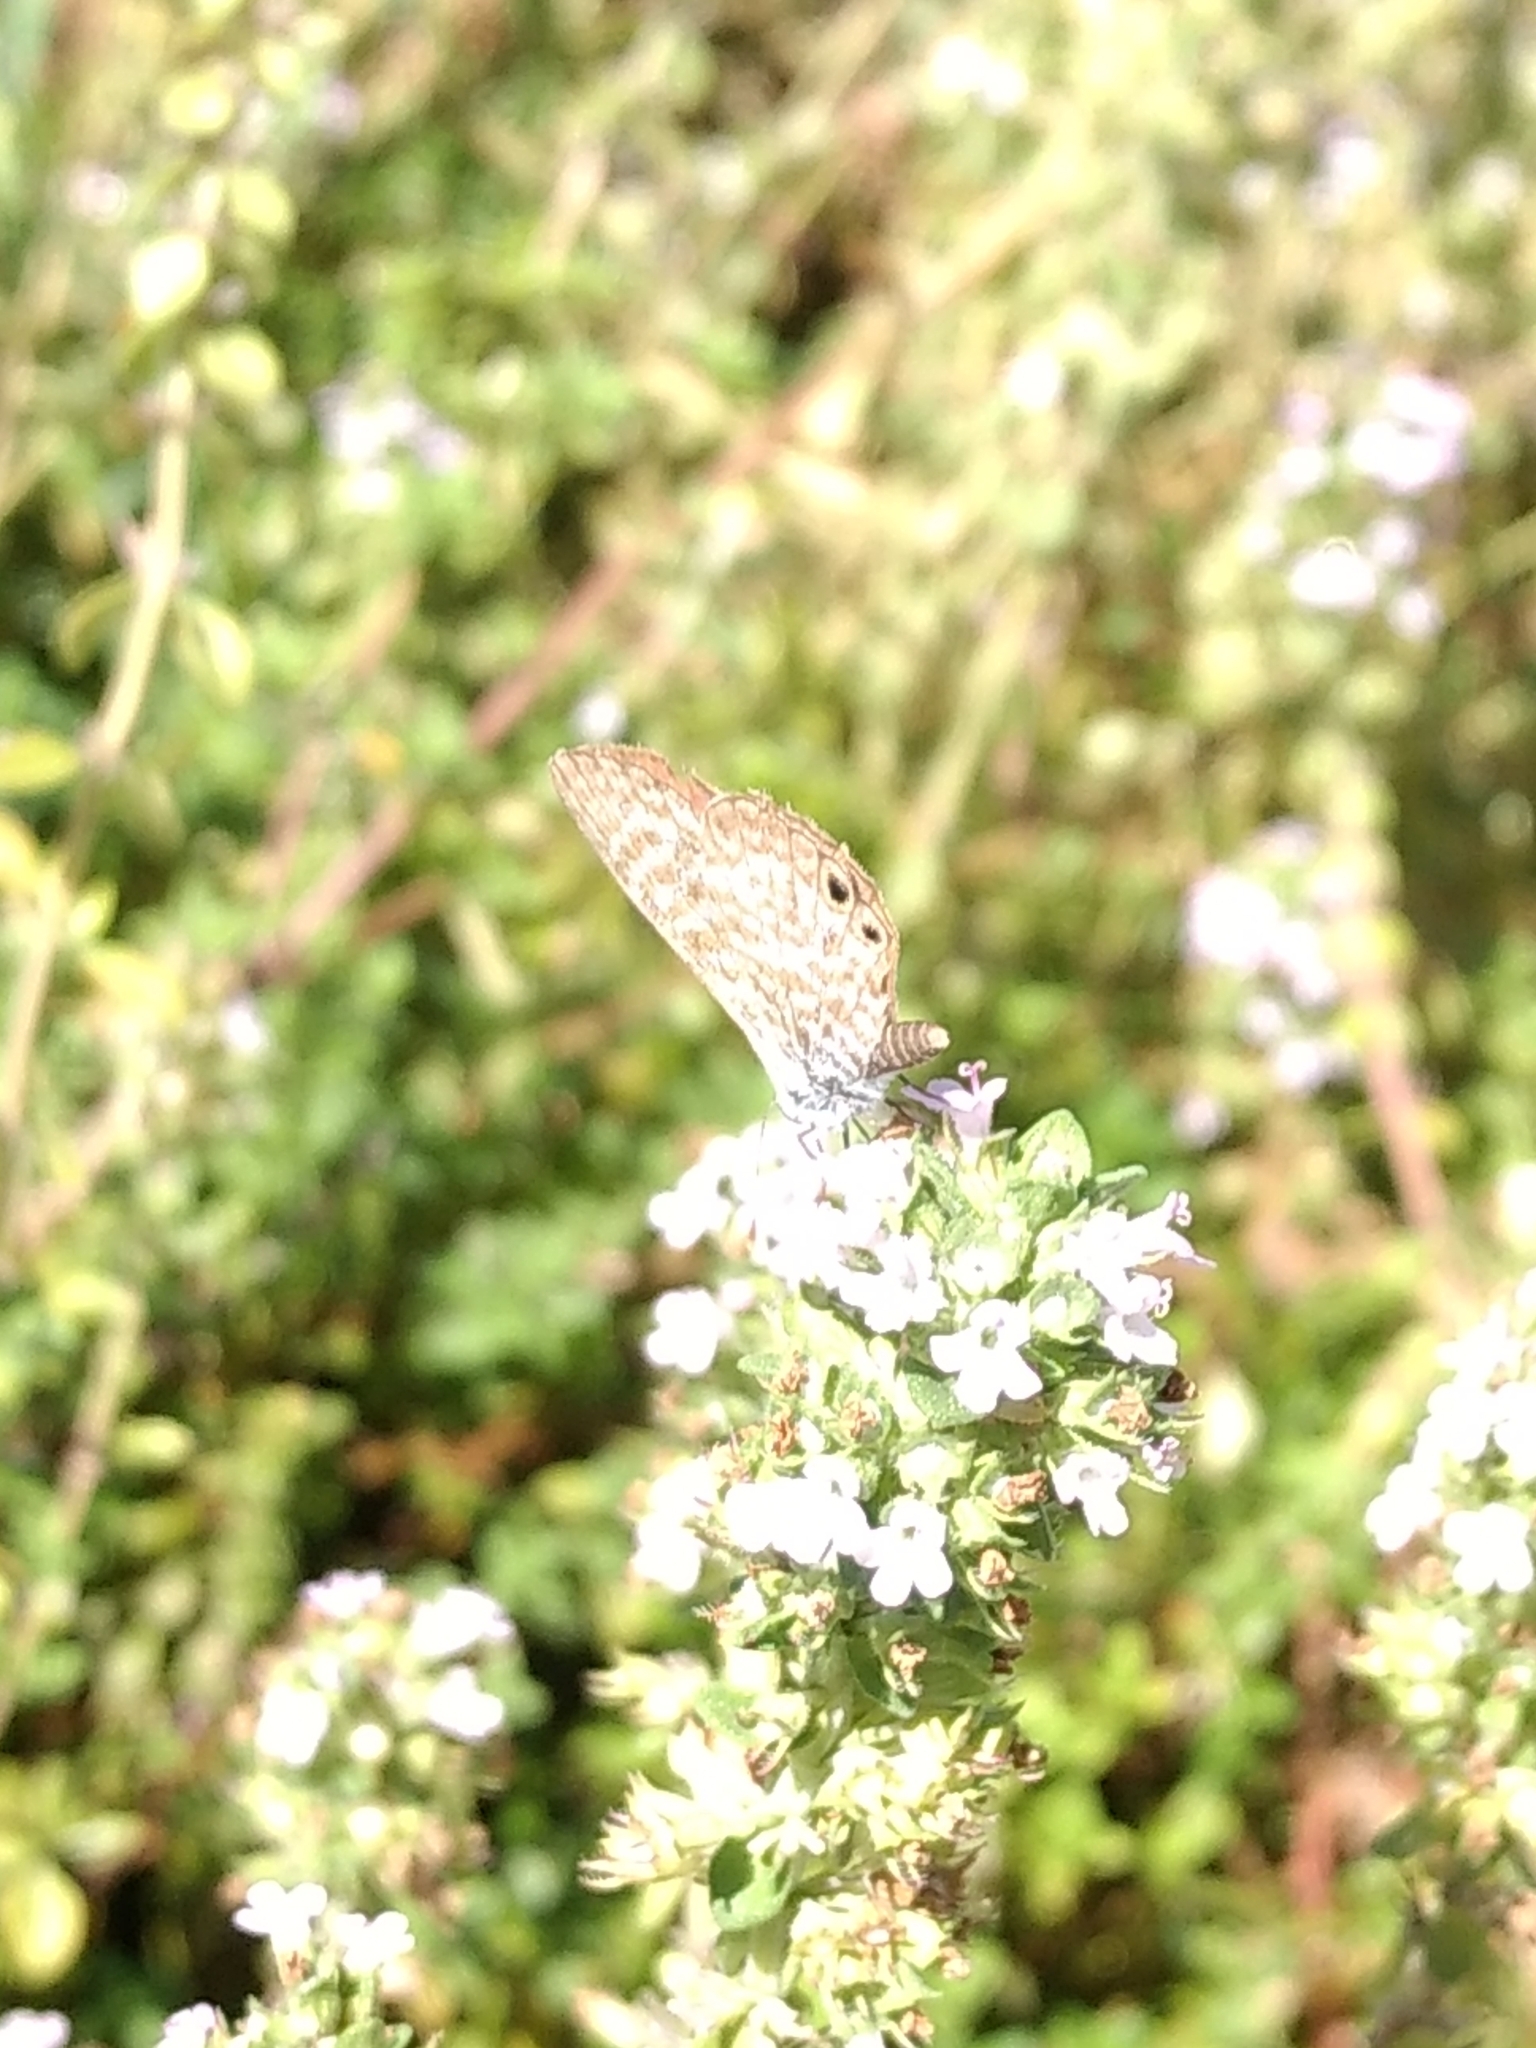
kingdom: Animalia
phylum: Arthropoda
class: Insecta
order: Lepidoptera
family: Lycaenidae
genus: Leptotes
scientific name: Leptotes marina
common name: Marine blue
